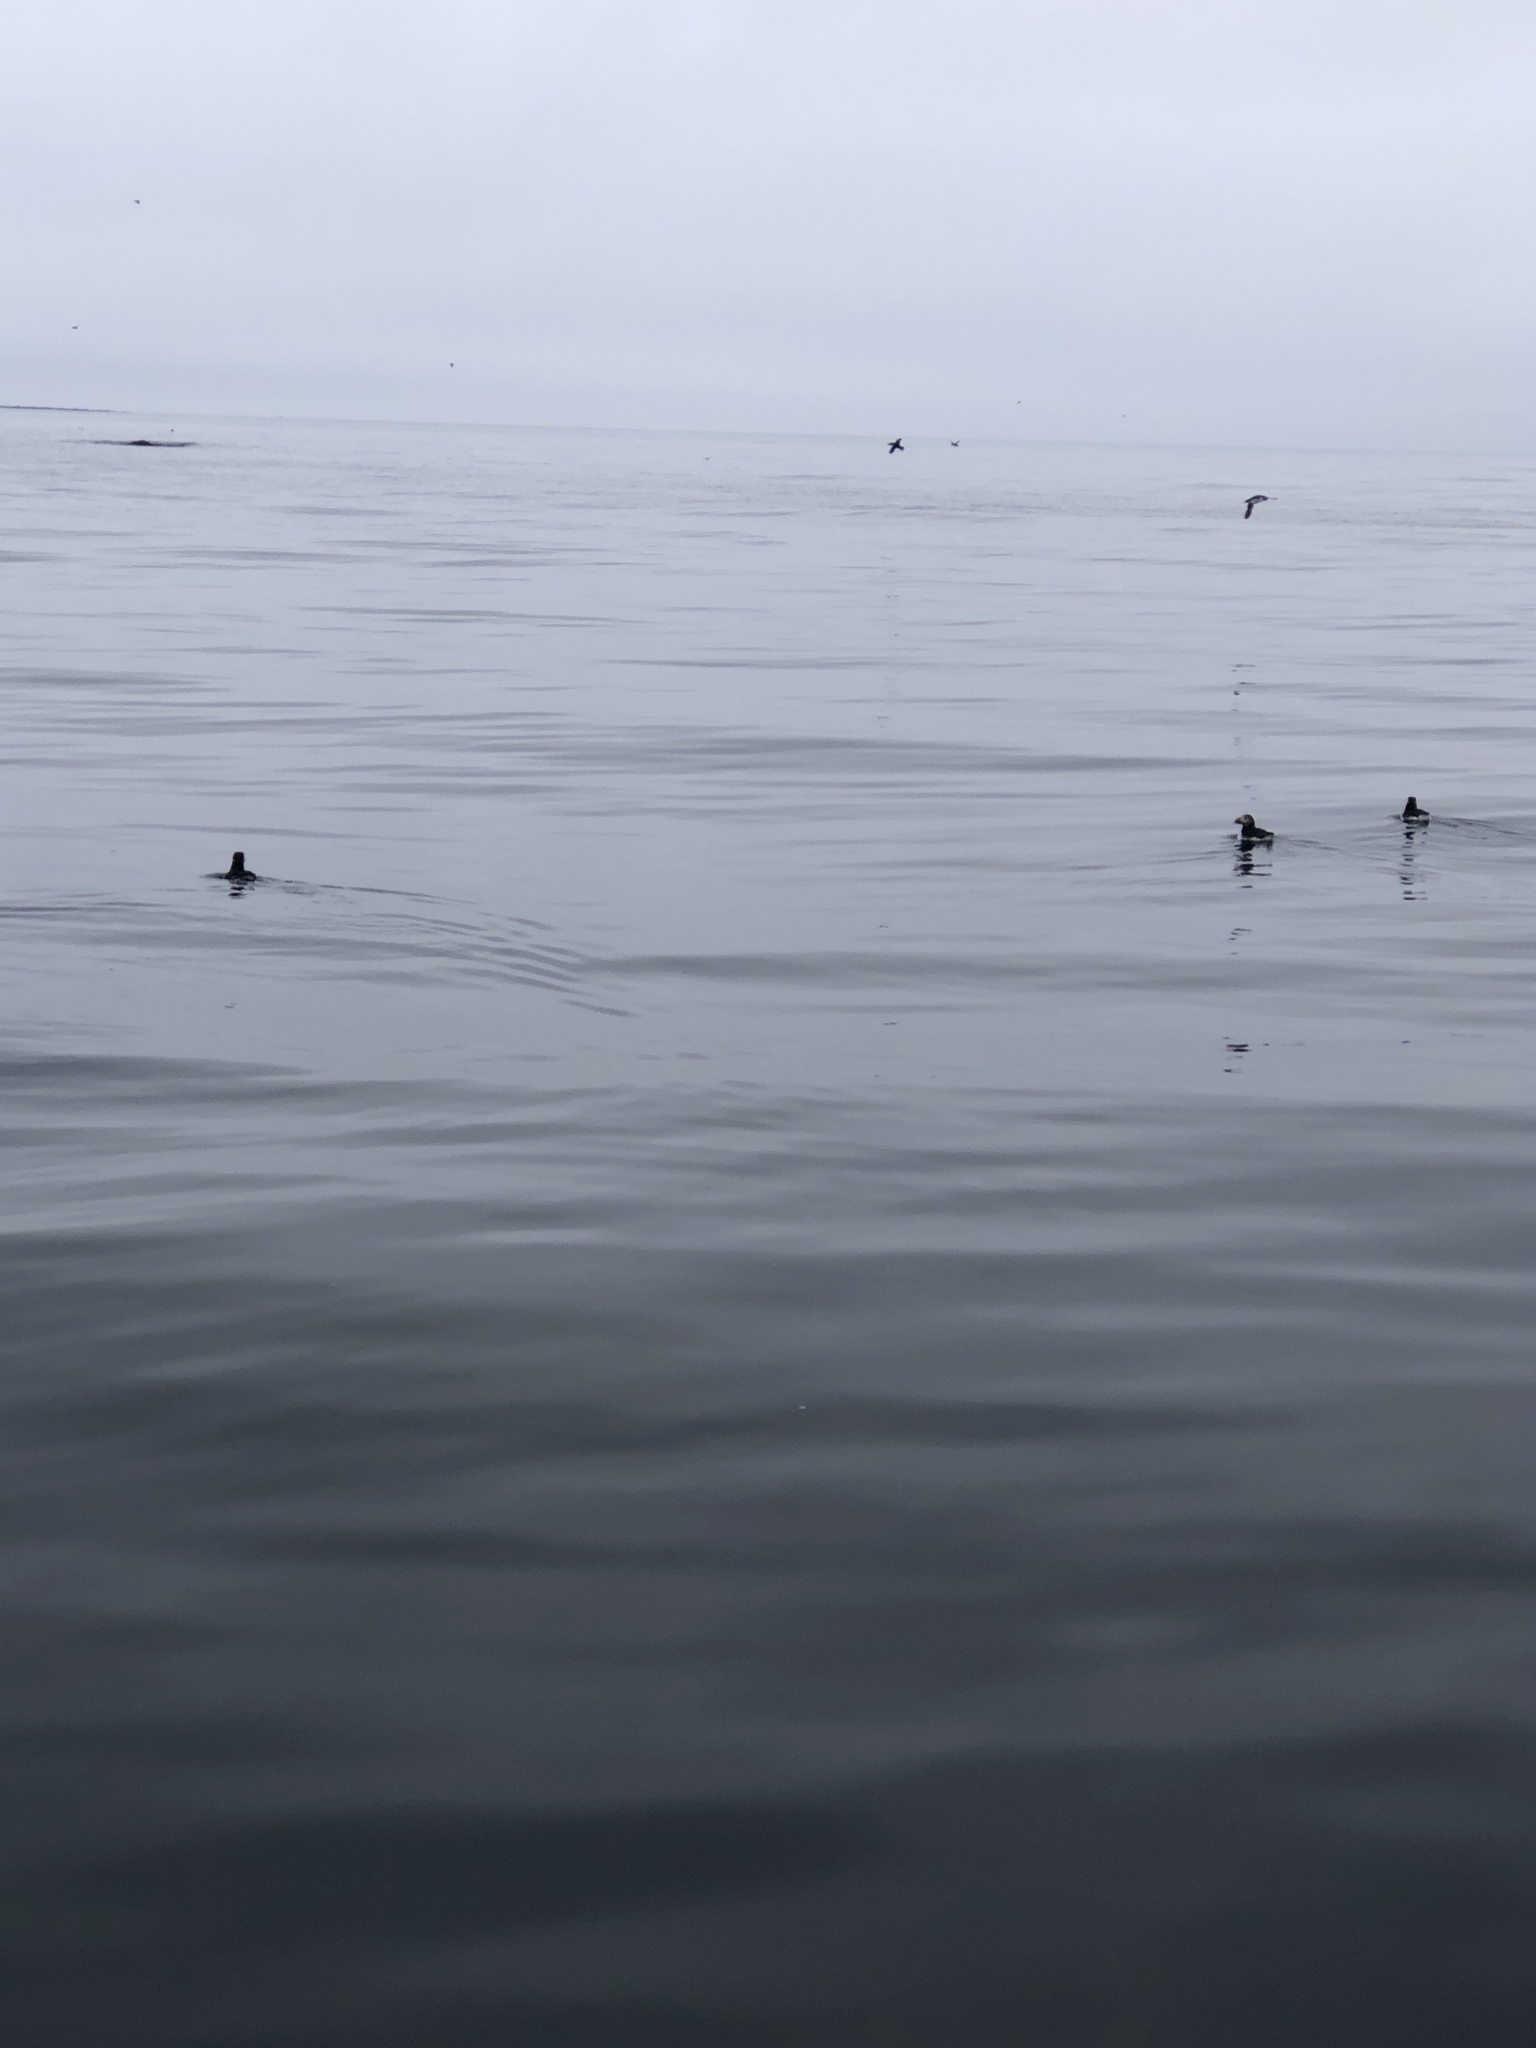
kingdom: Animalia
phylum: Chordata
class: Aves
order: Charadriiformes
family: Alcidae
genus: Fratercula
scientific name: Fratercula arctica
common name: Atlantic puffin
